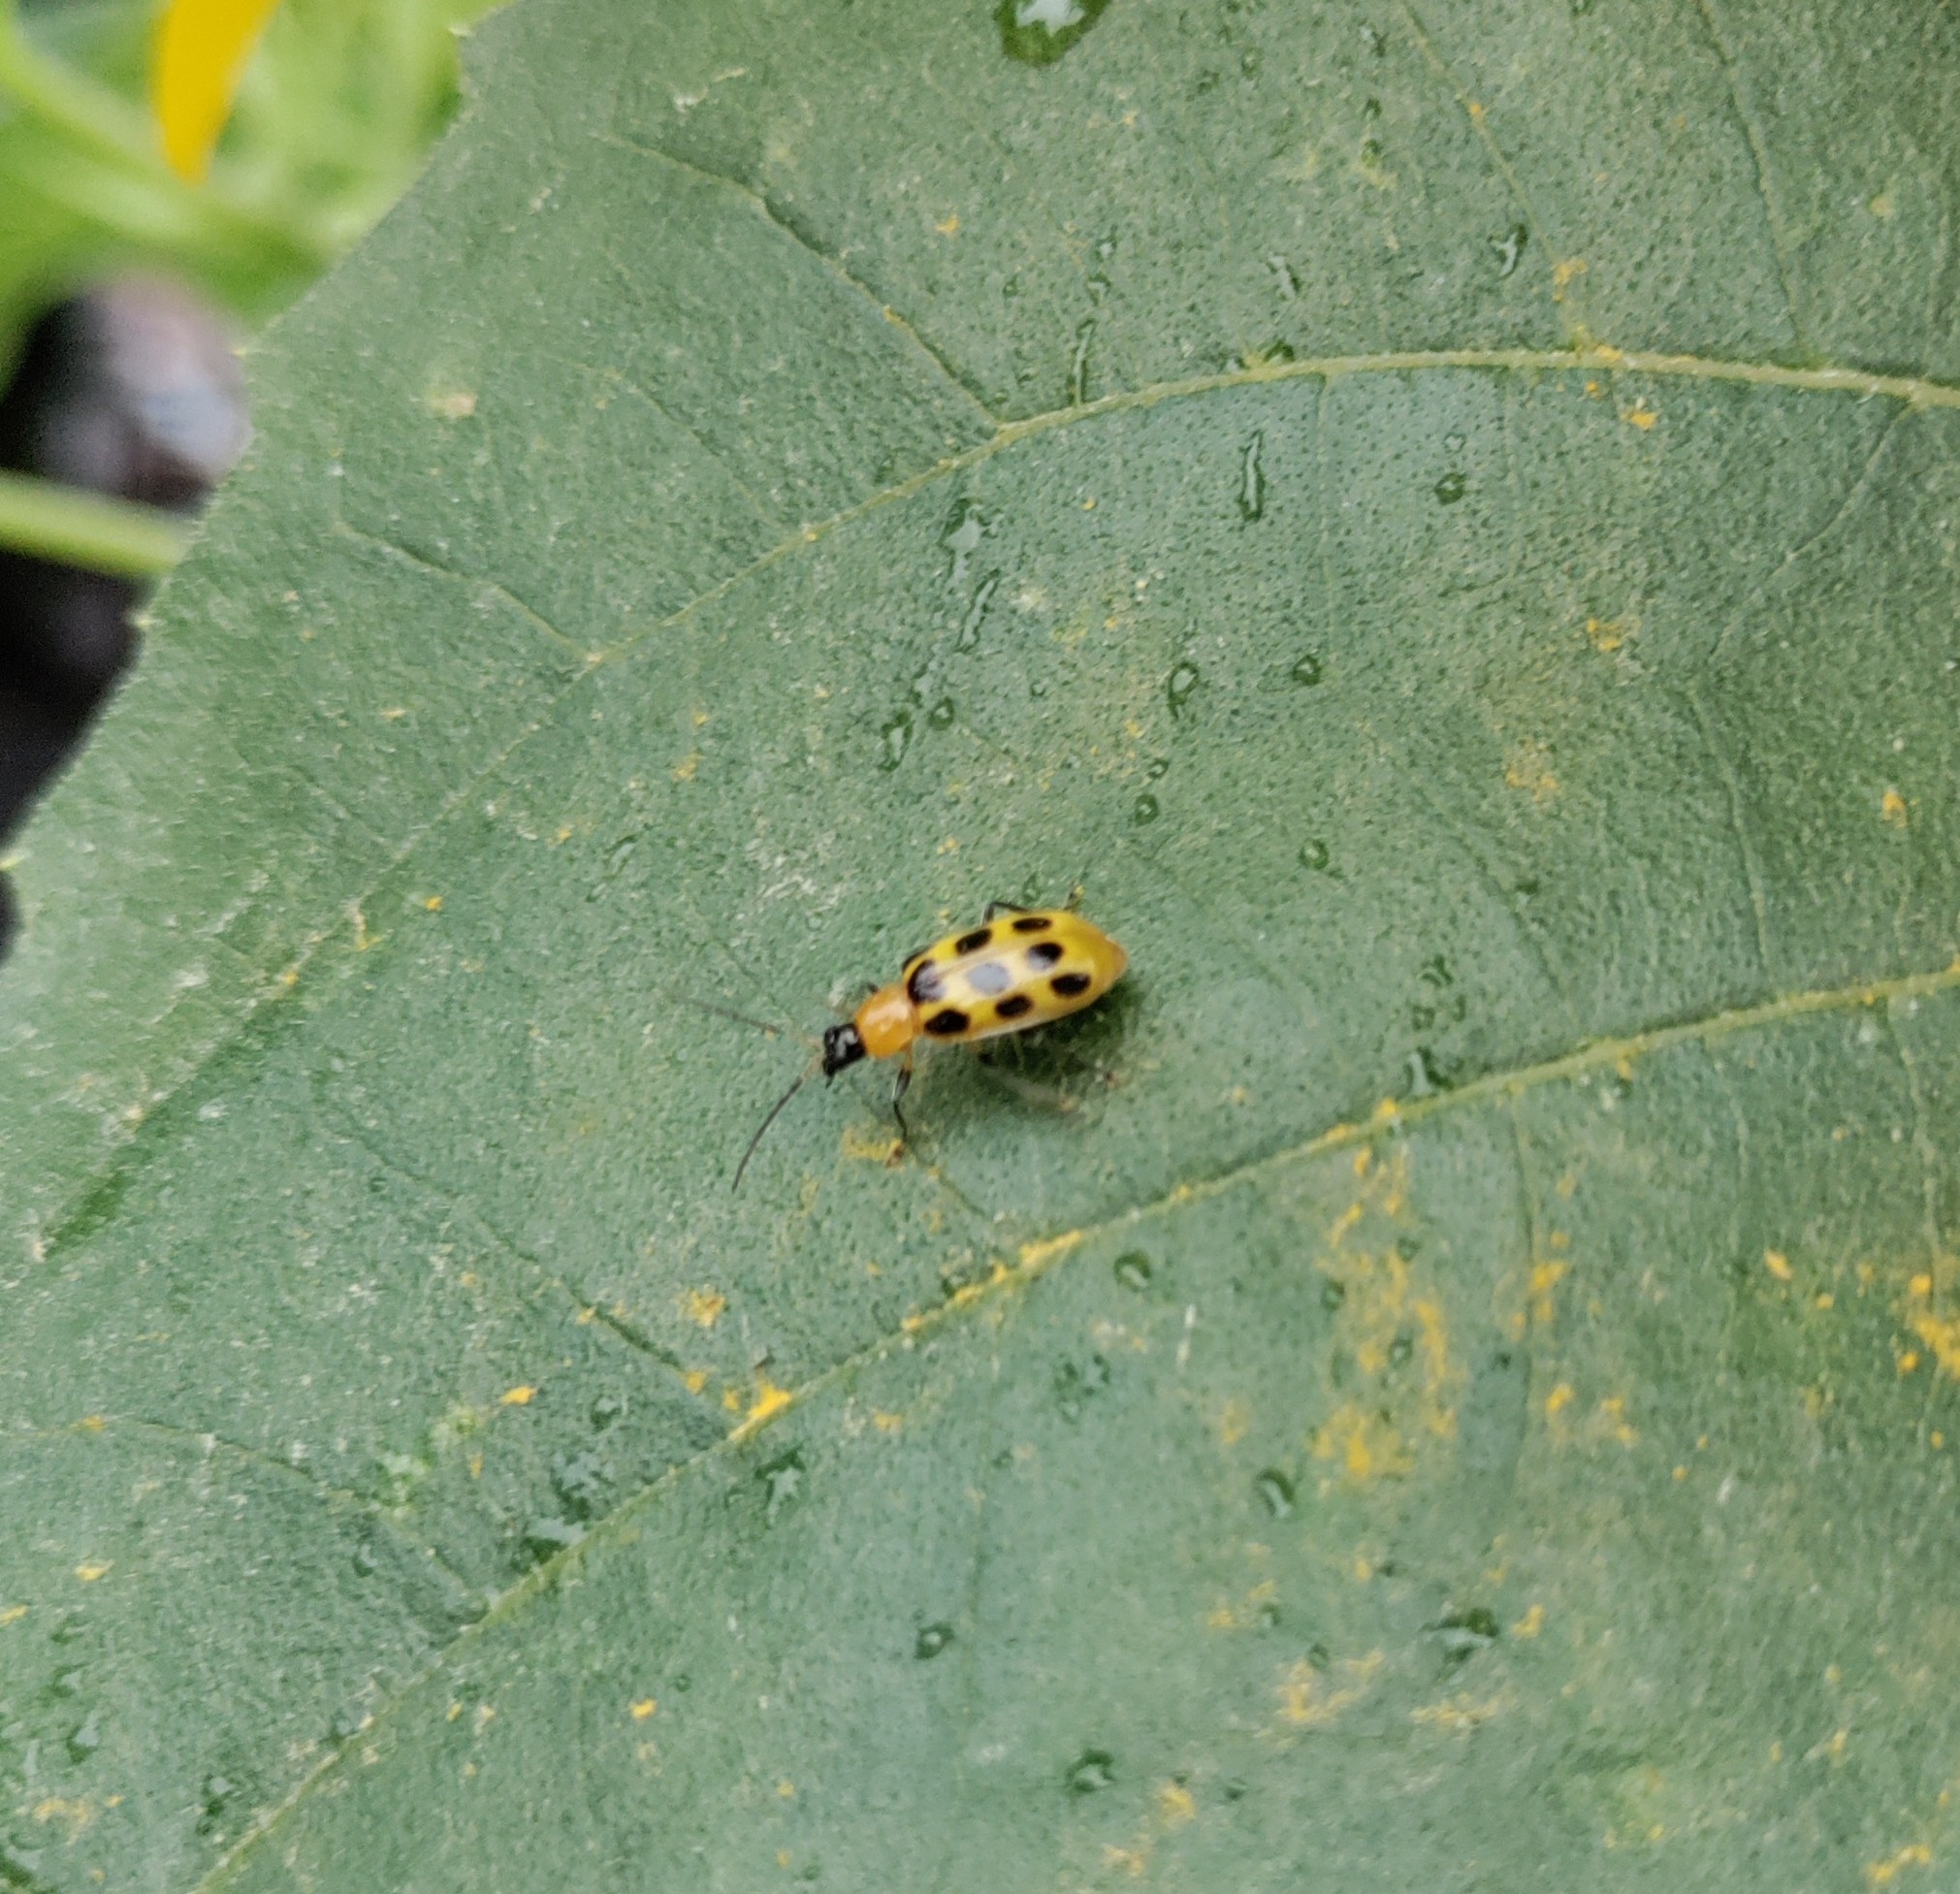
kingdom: Animalia
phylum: Arthropoda
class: Insecta
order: Coleoptera
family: Chrysomelidae
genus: Diabrotica
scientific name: Diabrotica undecimpunctata
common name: Spotted cucumber beetle
